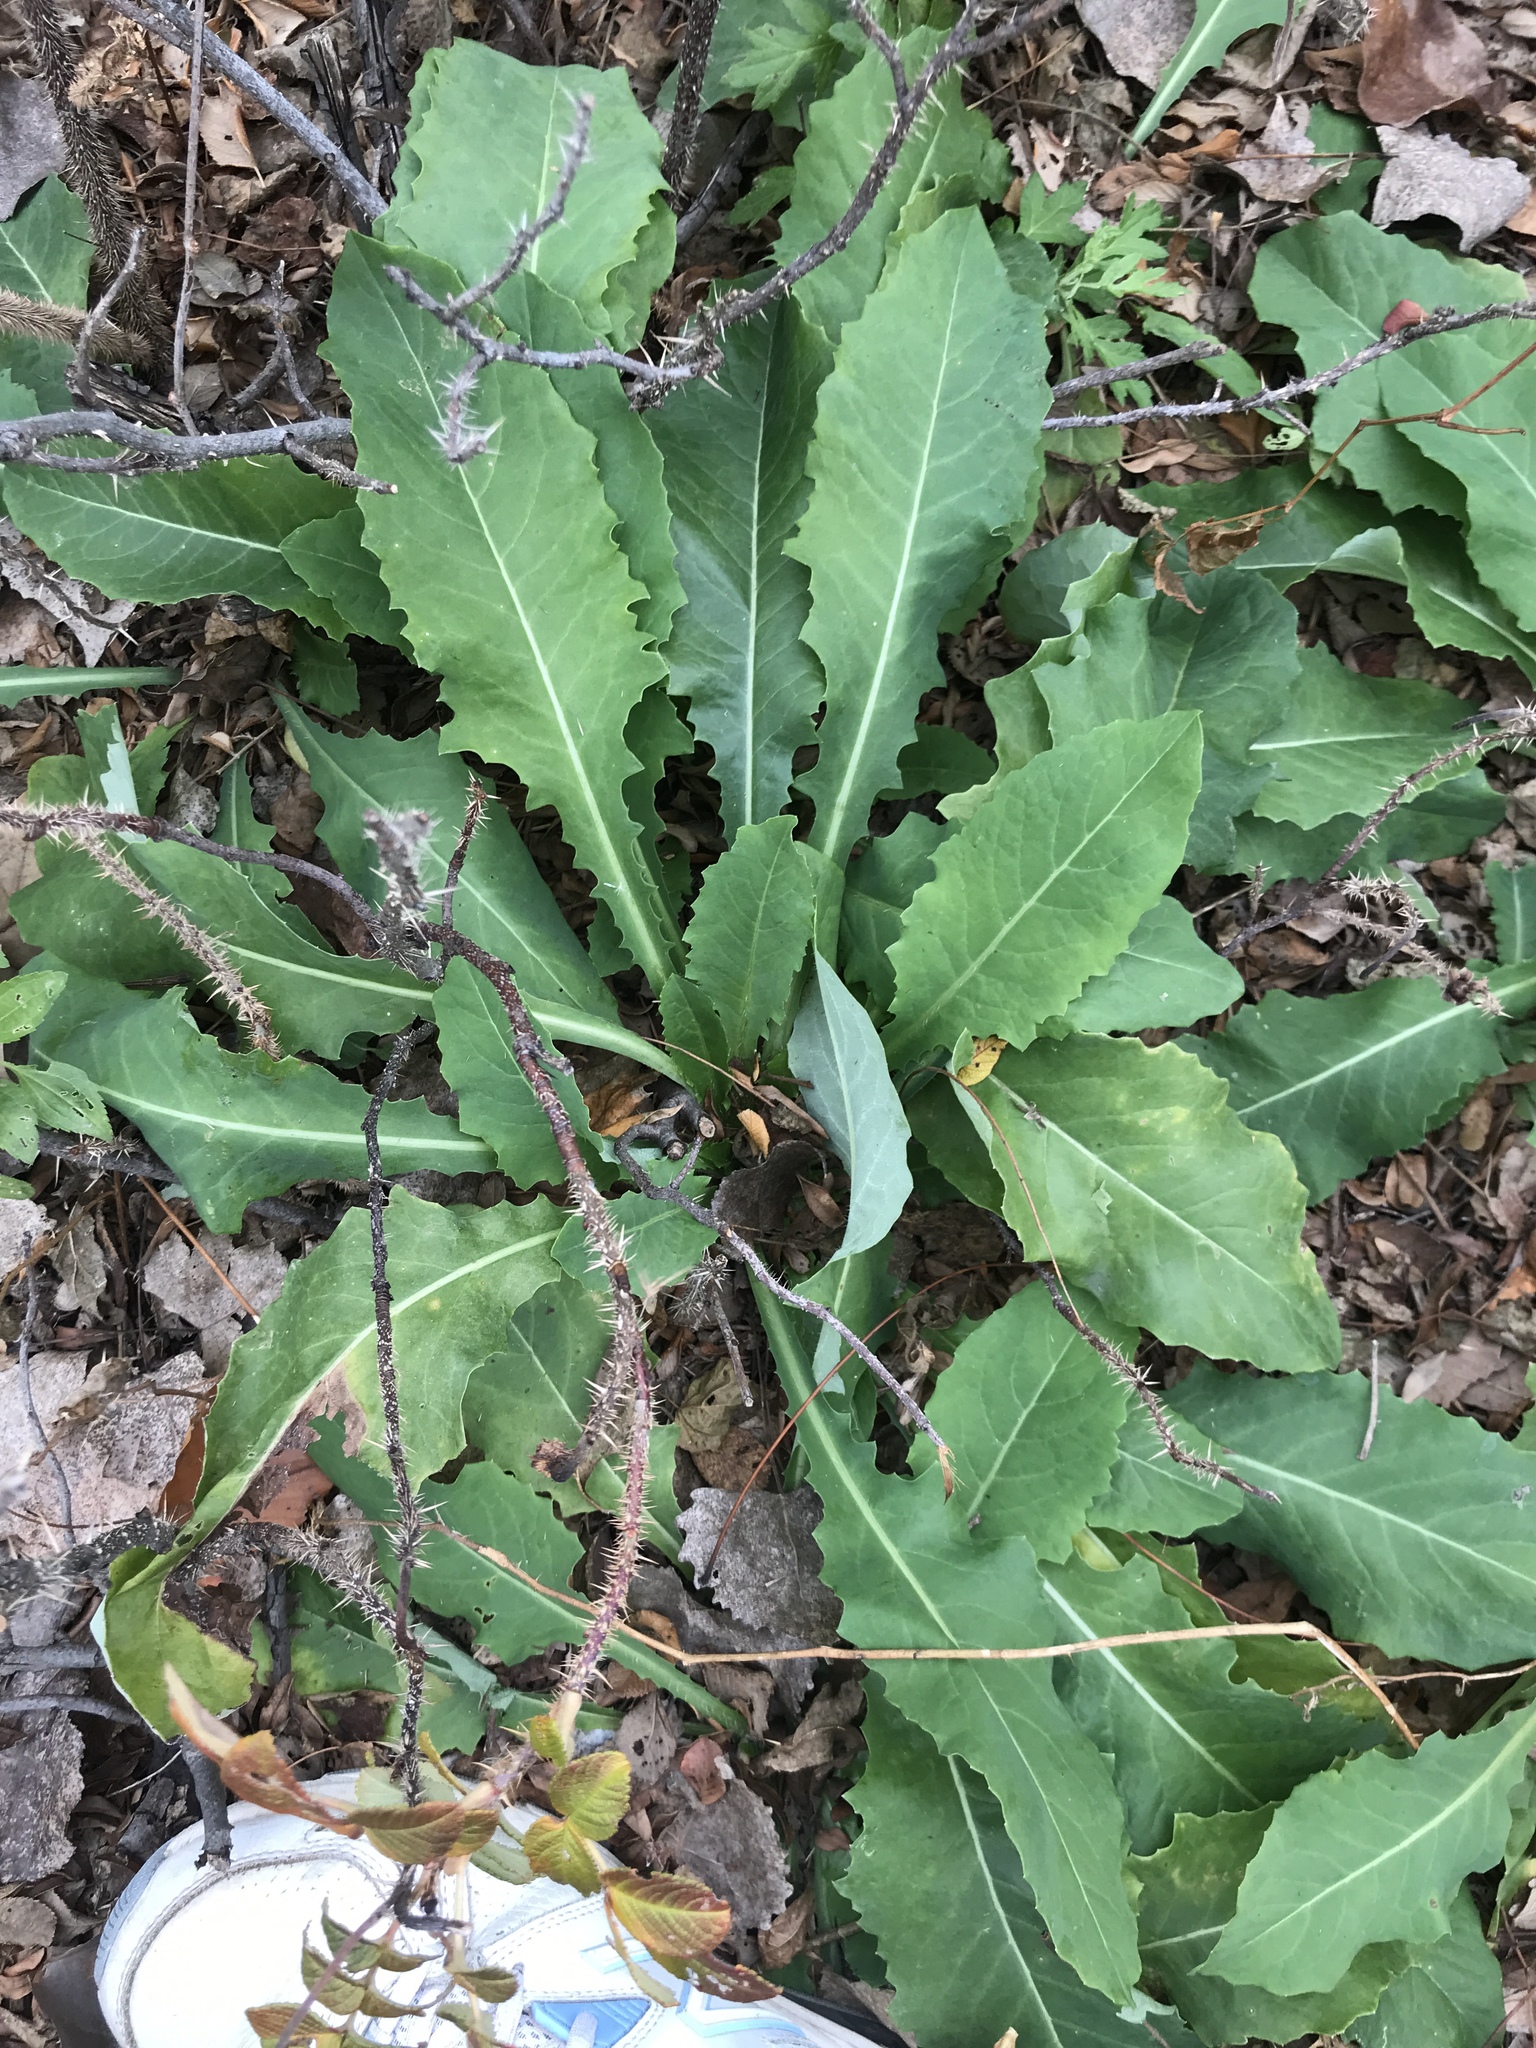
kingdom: Plantae
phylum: Tracheophyta
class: Magnoliopsida
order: Asterales
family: Asteraceae
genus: Cichorium
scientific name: Cichorium intybus
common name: Chicory
